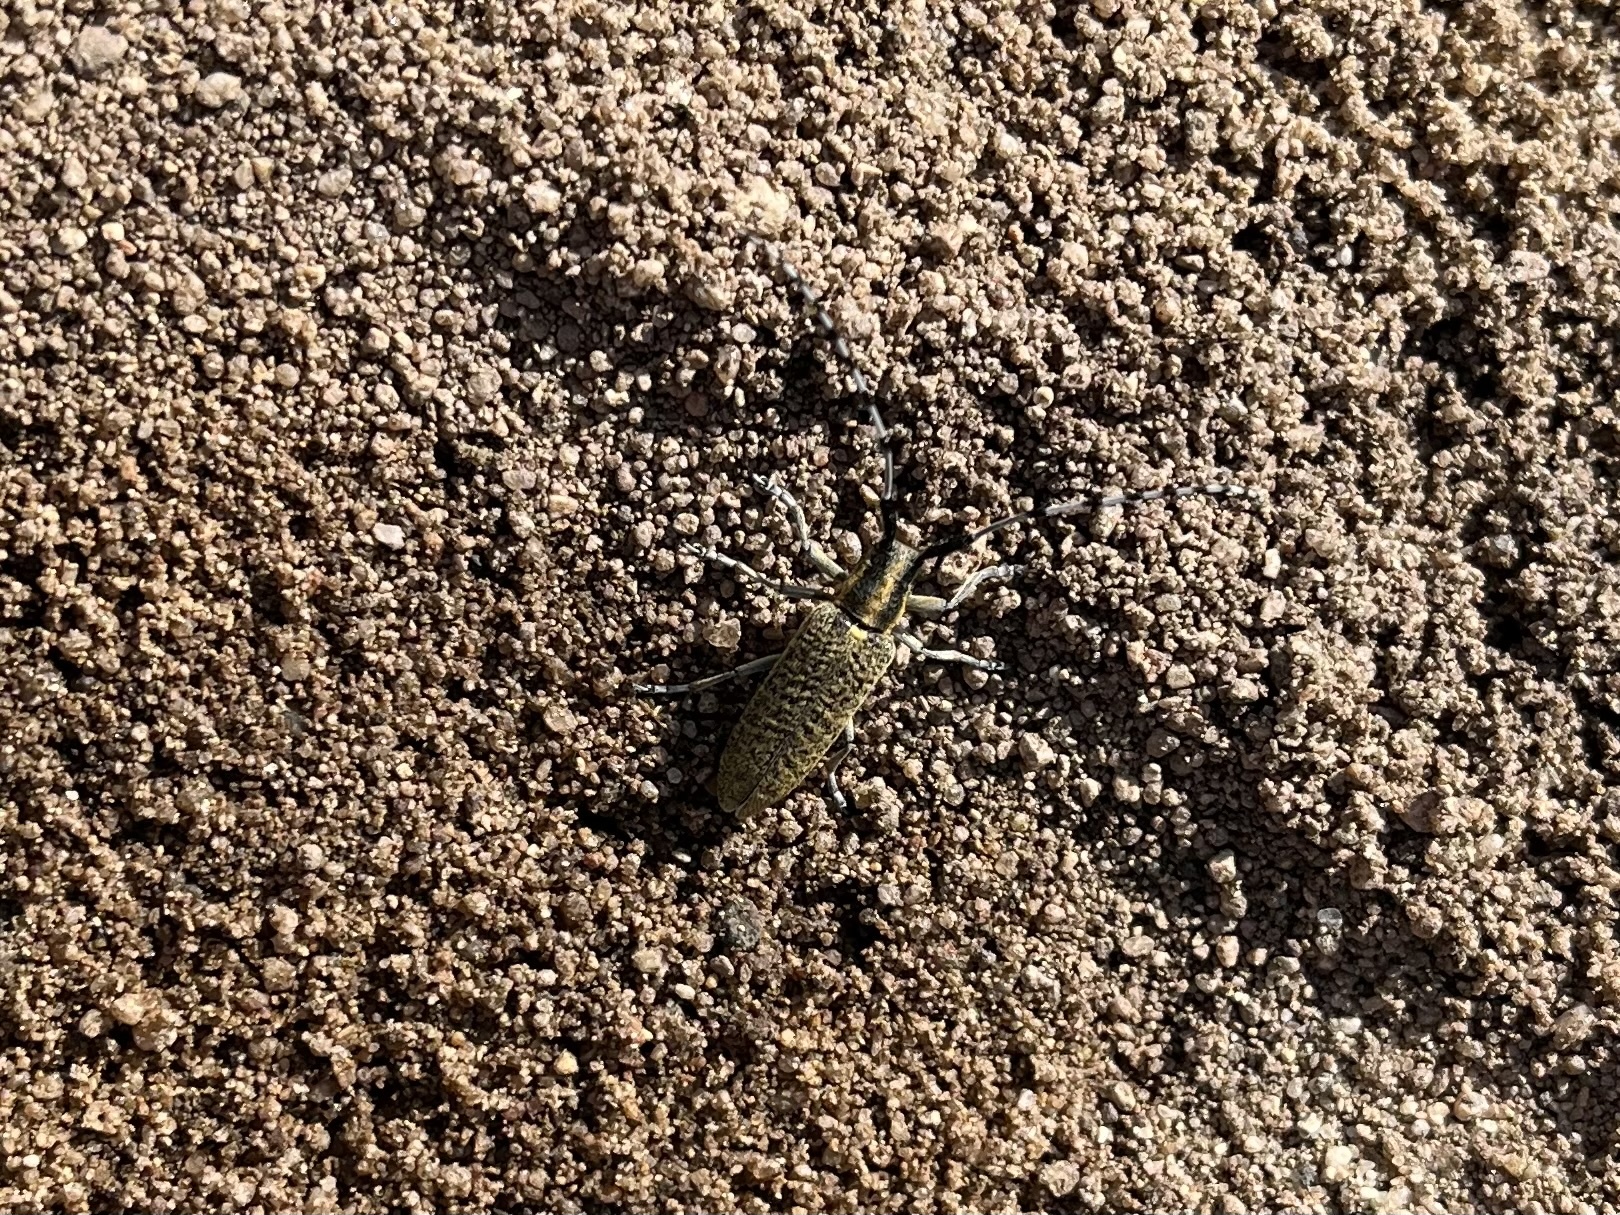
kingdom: Animalia
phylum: Arthropoda
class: Insecta
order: Coleoptera
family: Cerambycidae
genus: Agapanthia
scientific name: Agapanthia villosoviridescens
